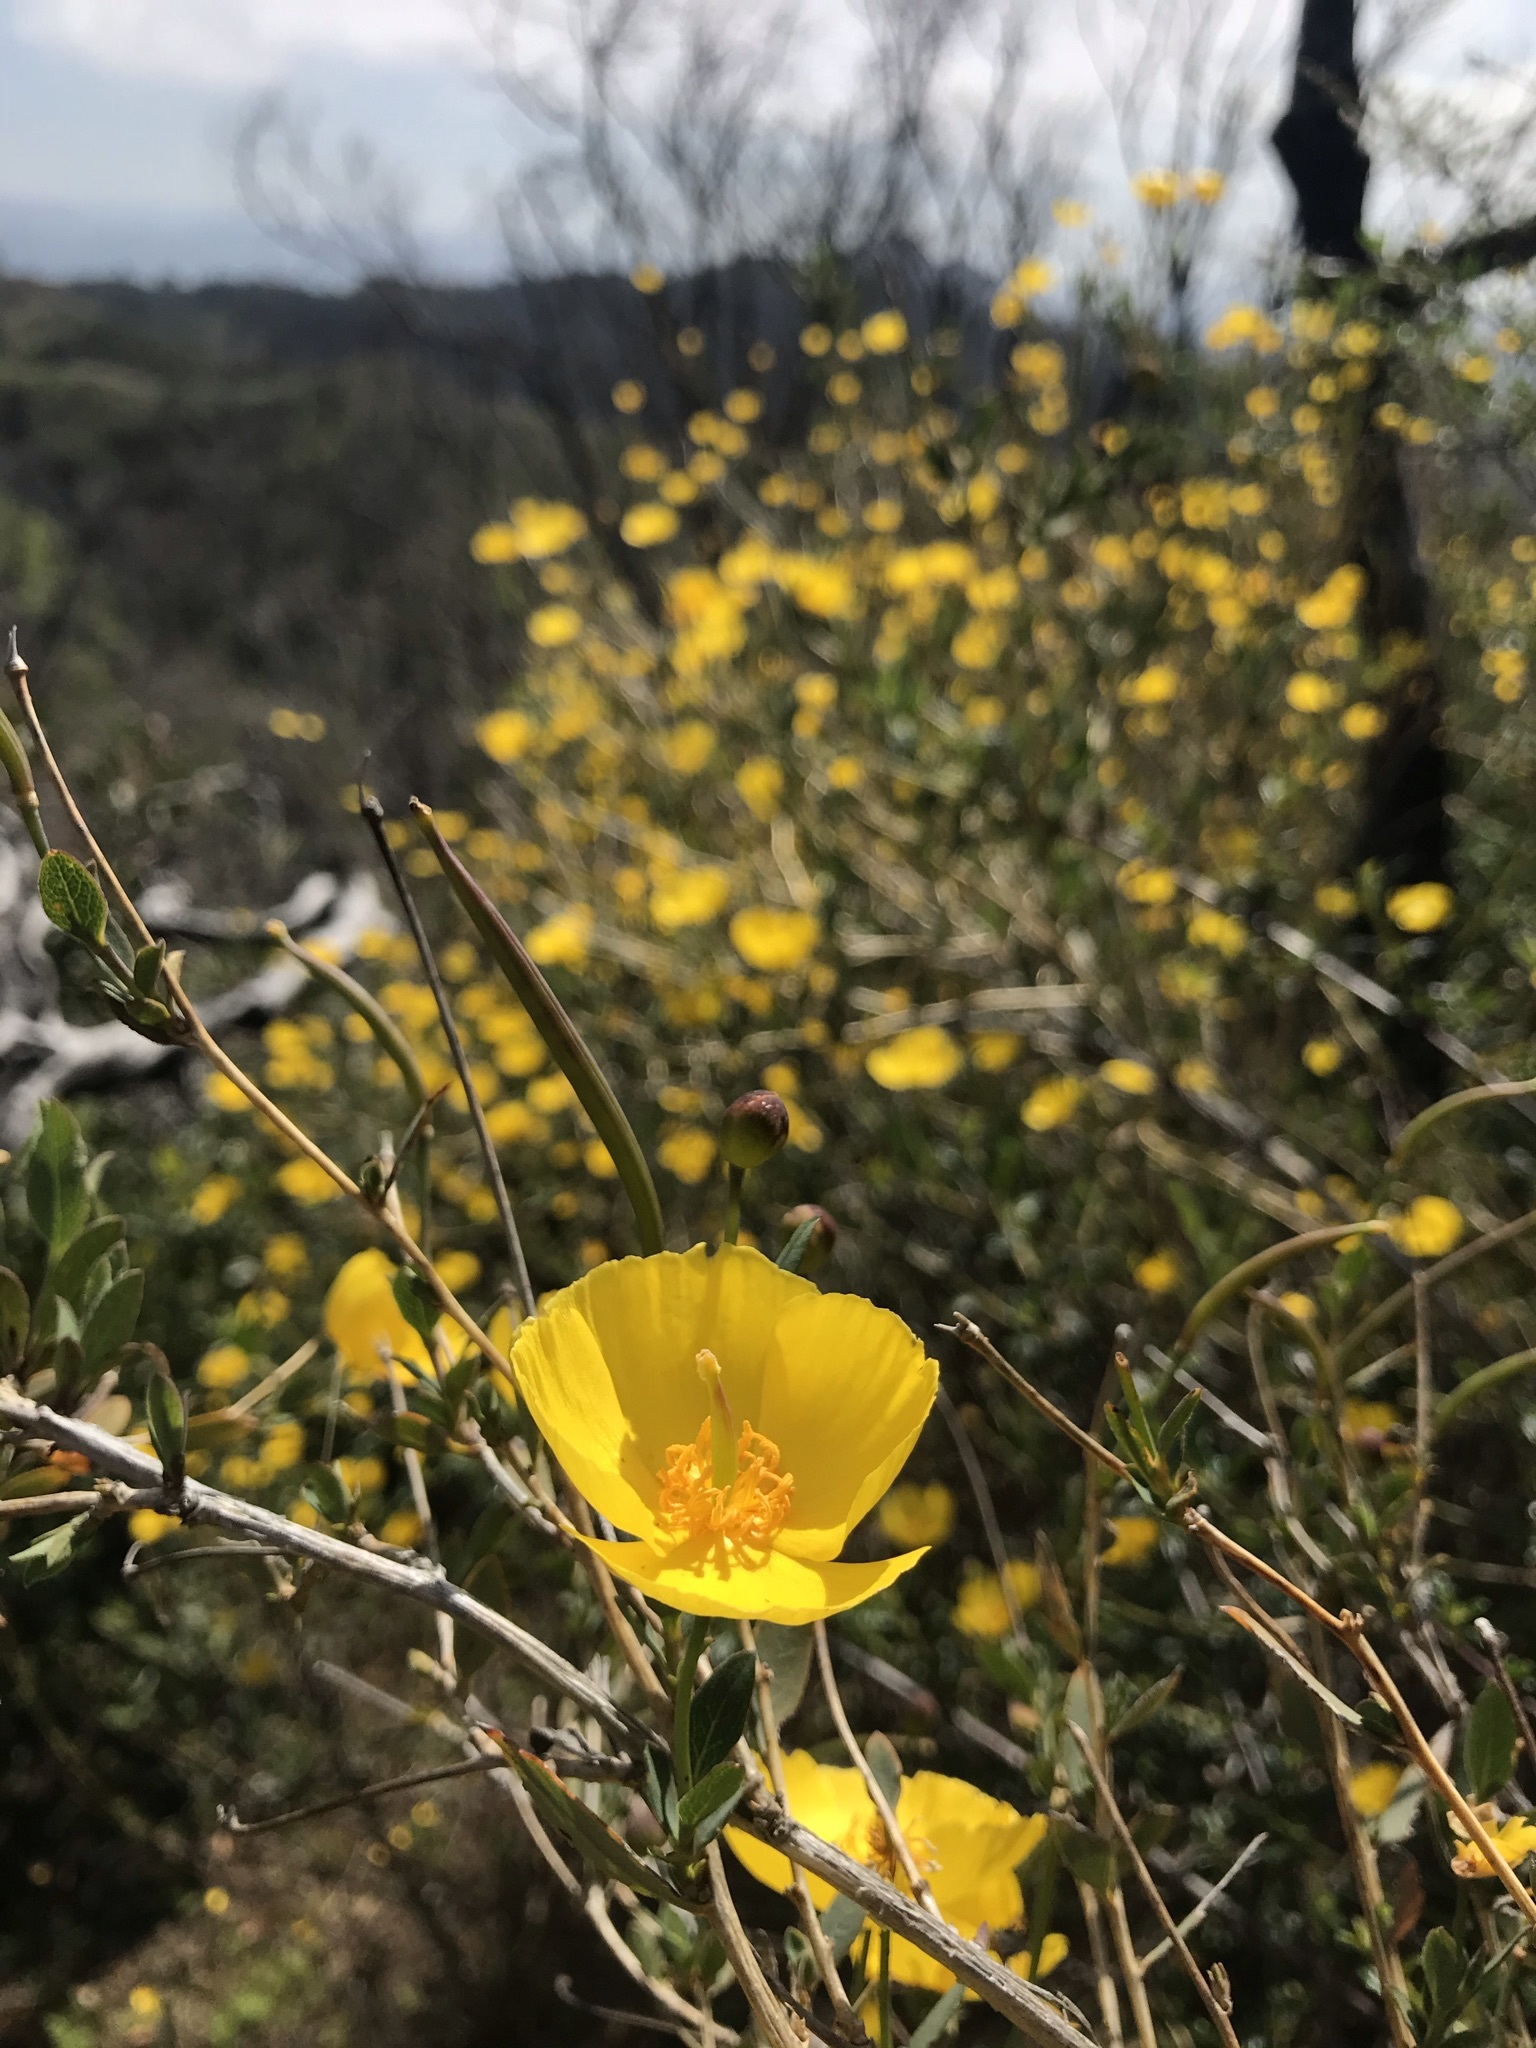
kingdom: Plantae
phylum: Tracheophyta
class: Magnoliopsida
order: Ranunculales
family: Papaveraceae
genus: Dendromecon
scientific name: Dendromecon rigida
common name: Tree poppy
